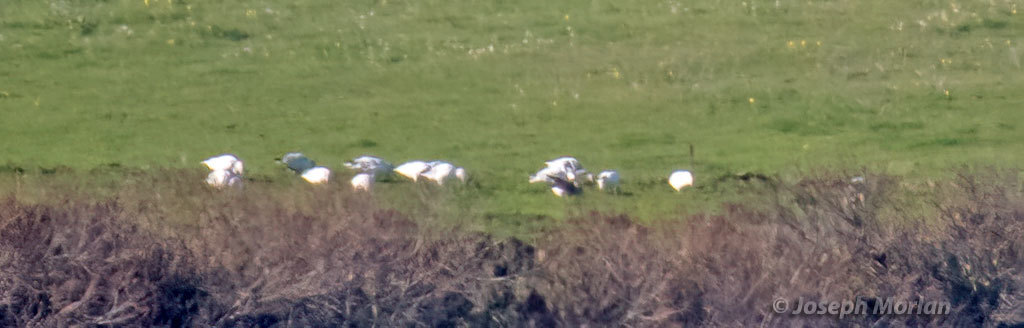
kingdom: Animalia
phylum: Chordata
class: Aves
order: Anseriformes
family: Anatidae
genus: Anser
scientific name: Anser caerulescens
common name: Snow goose
